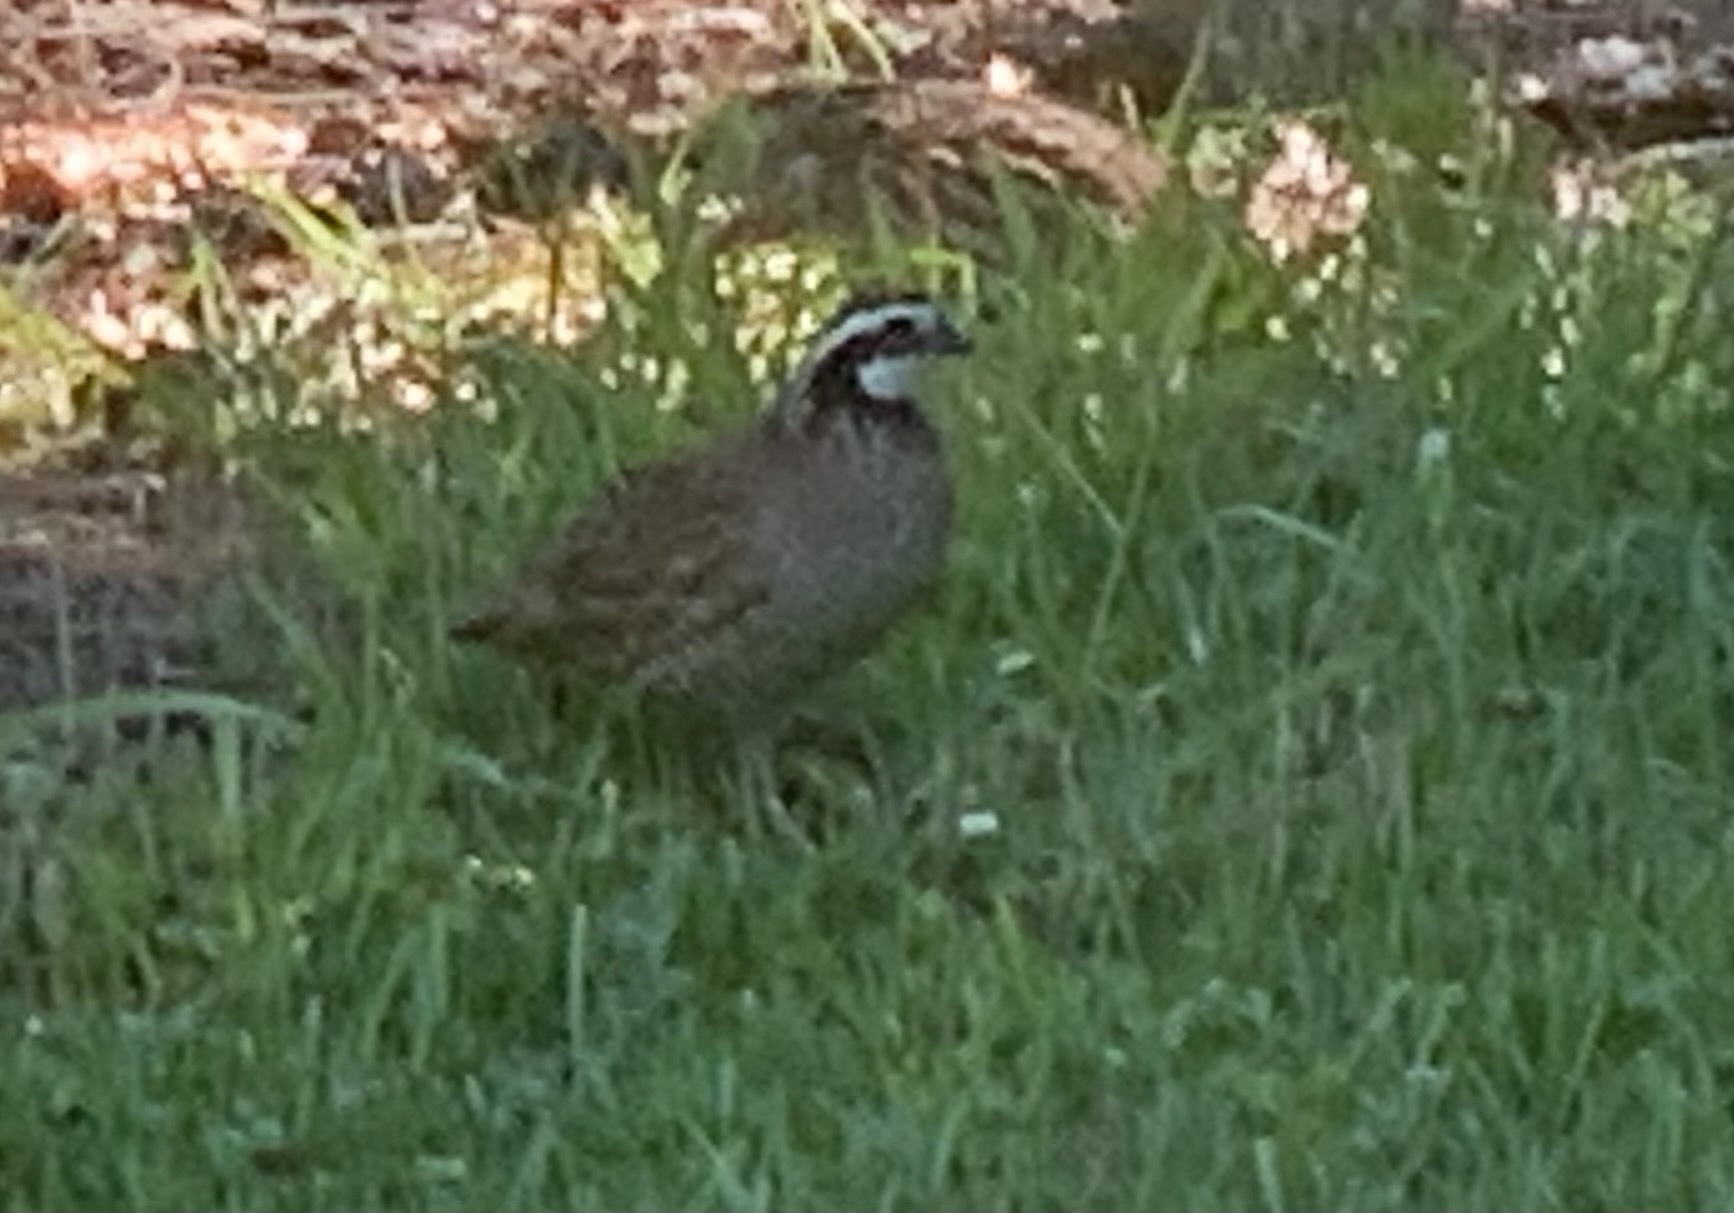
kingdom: Animalia
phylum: Chordata
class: Aves
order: Galliformes
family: Odontophoridae
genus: Colinus
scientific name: Colinus virginianus
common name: Northern bobwhite
